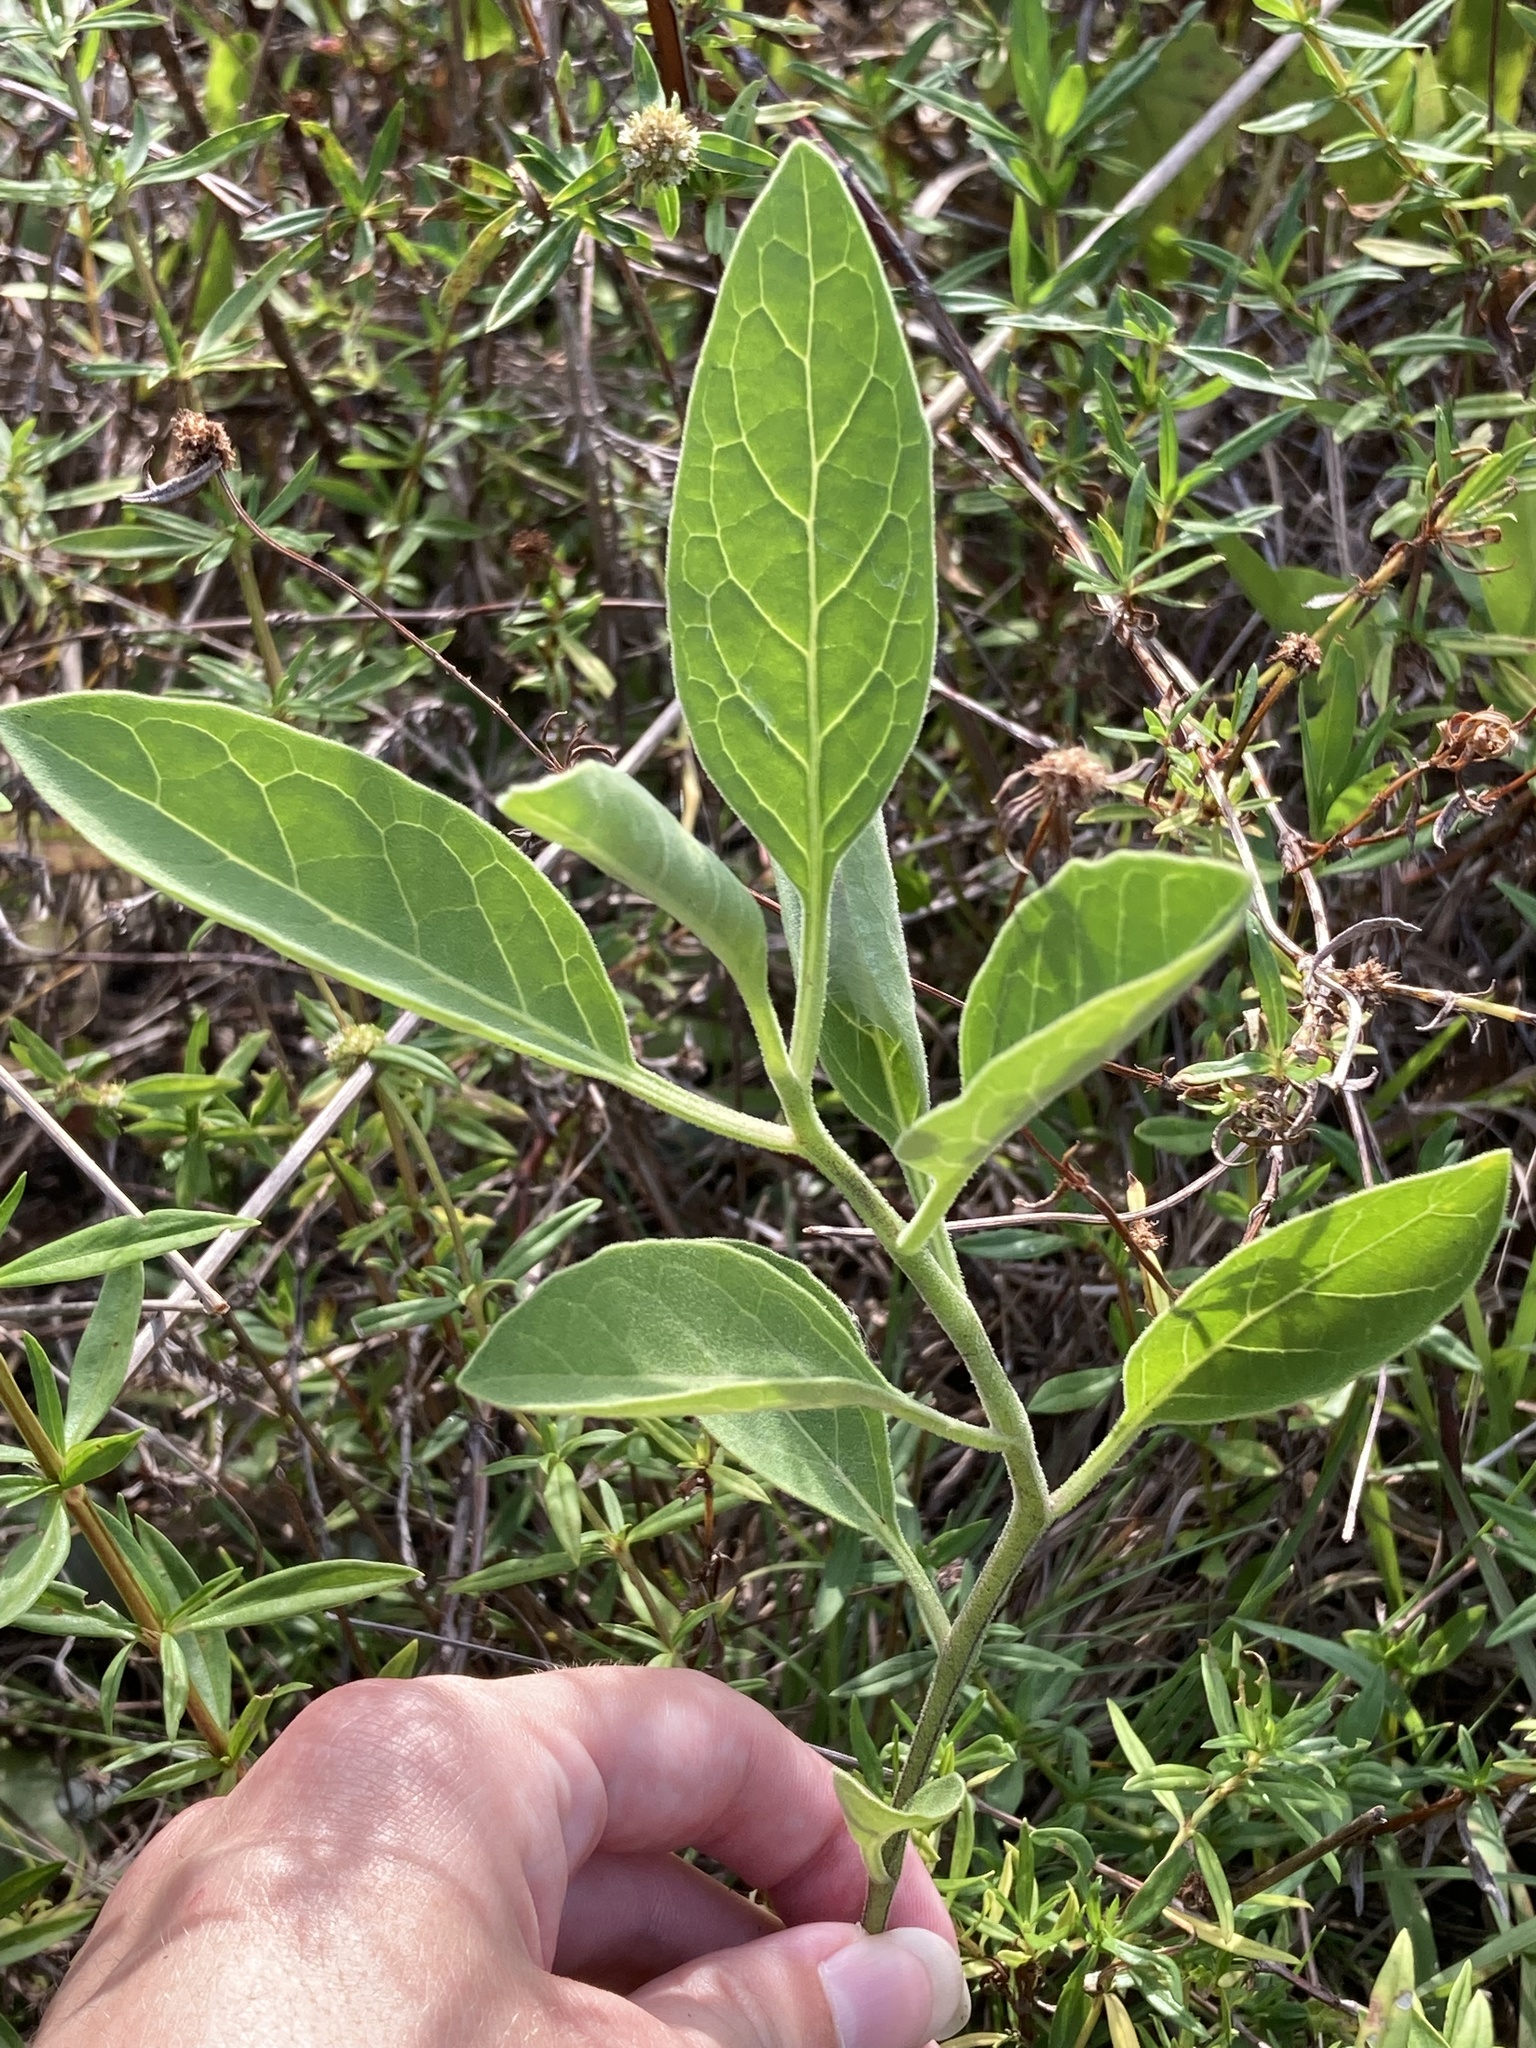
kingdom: Plantae
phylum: Tracheophyta
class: Magnoliopsida
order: Solanales
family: Solanaceae
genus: Physalis
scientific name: Physalis walteri
